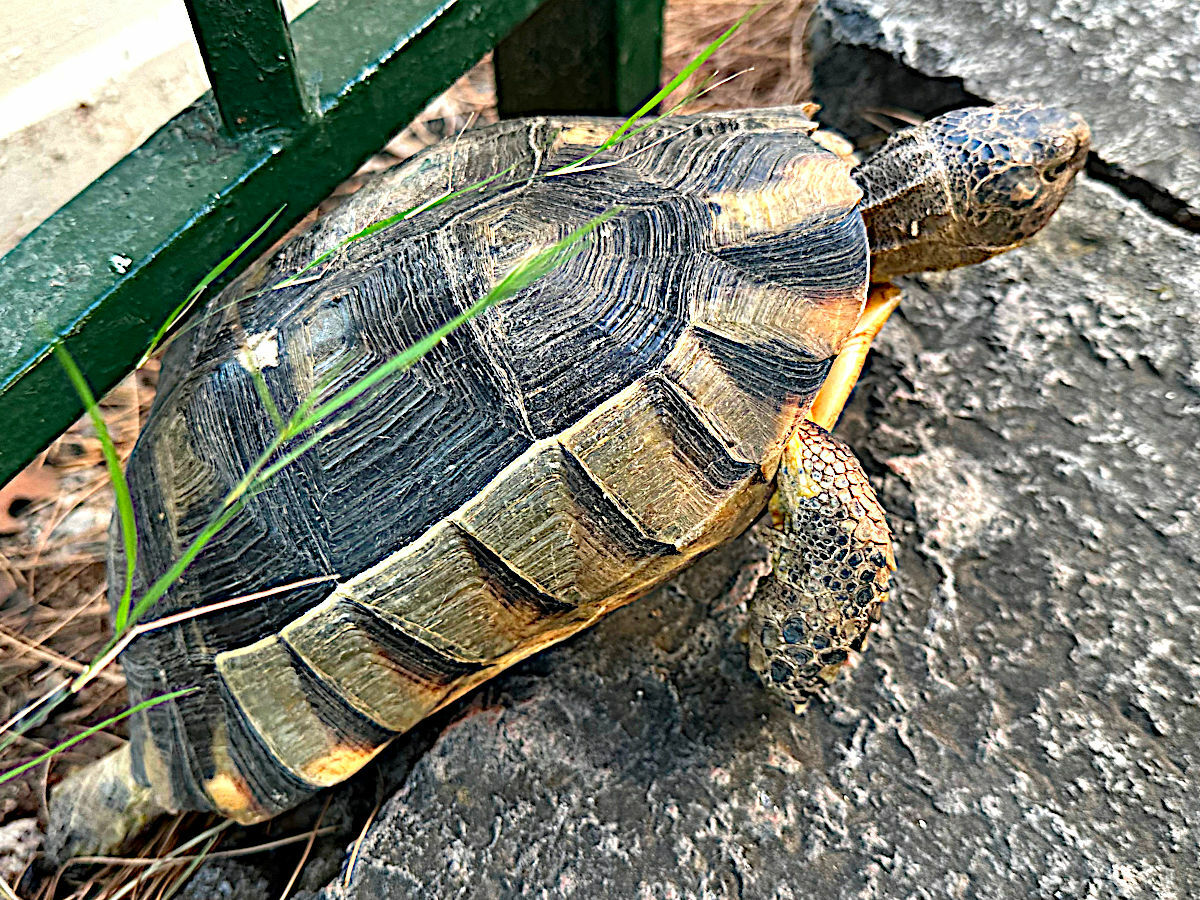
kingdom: Animalia
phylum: Chordata
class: Testudines
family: Testudinidae
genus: Testudo
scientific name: Testudo marginata
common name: Marginated tortoise
